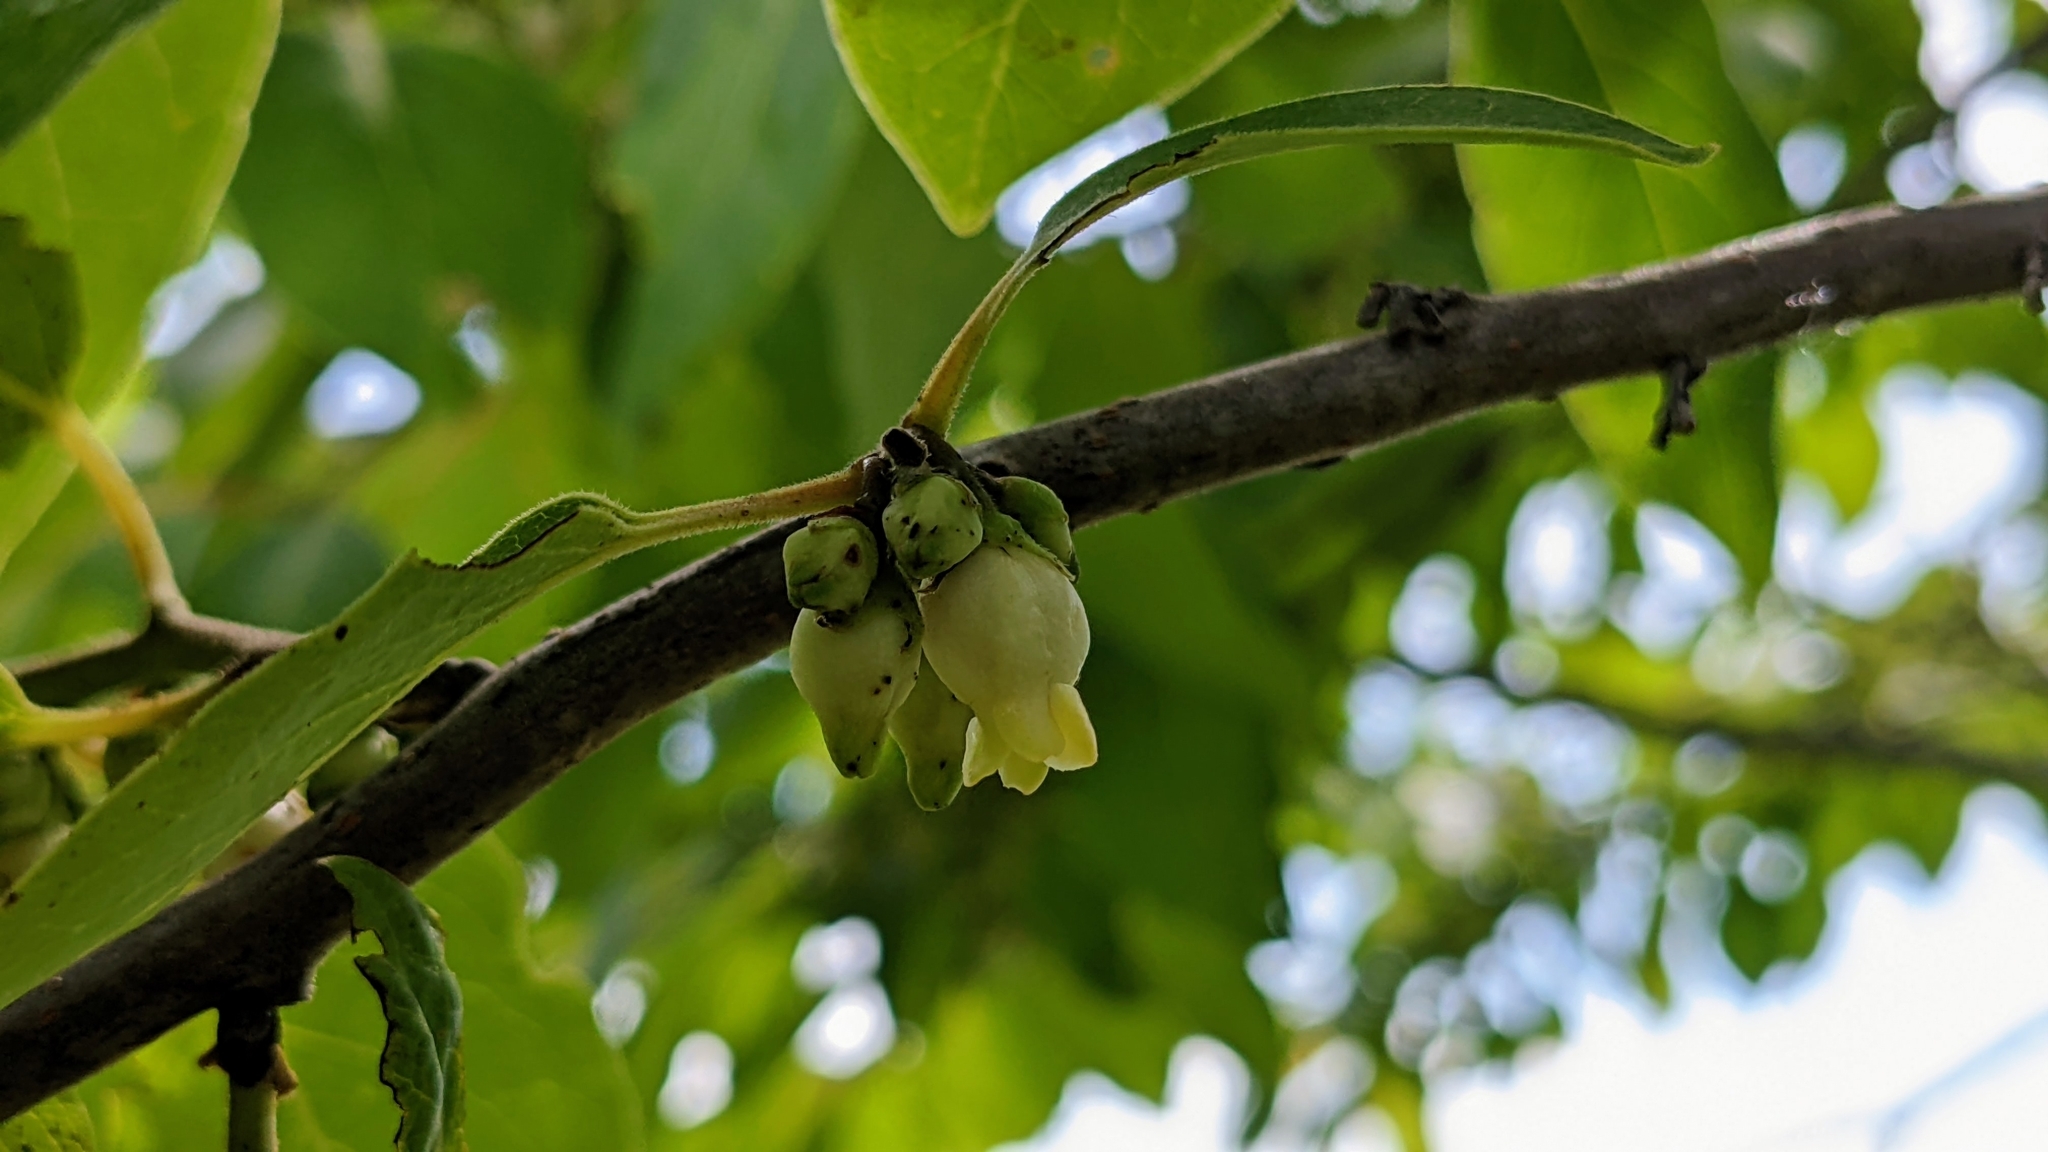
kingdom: Plantae
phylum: Tracheophyta
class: Magnoliopsida
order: Ericales
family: Ebenaceae
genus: Diospyros
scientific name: Diospyros virginiana
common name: Persimmon
